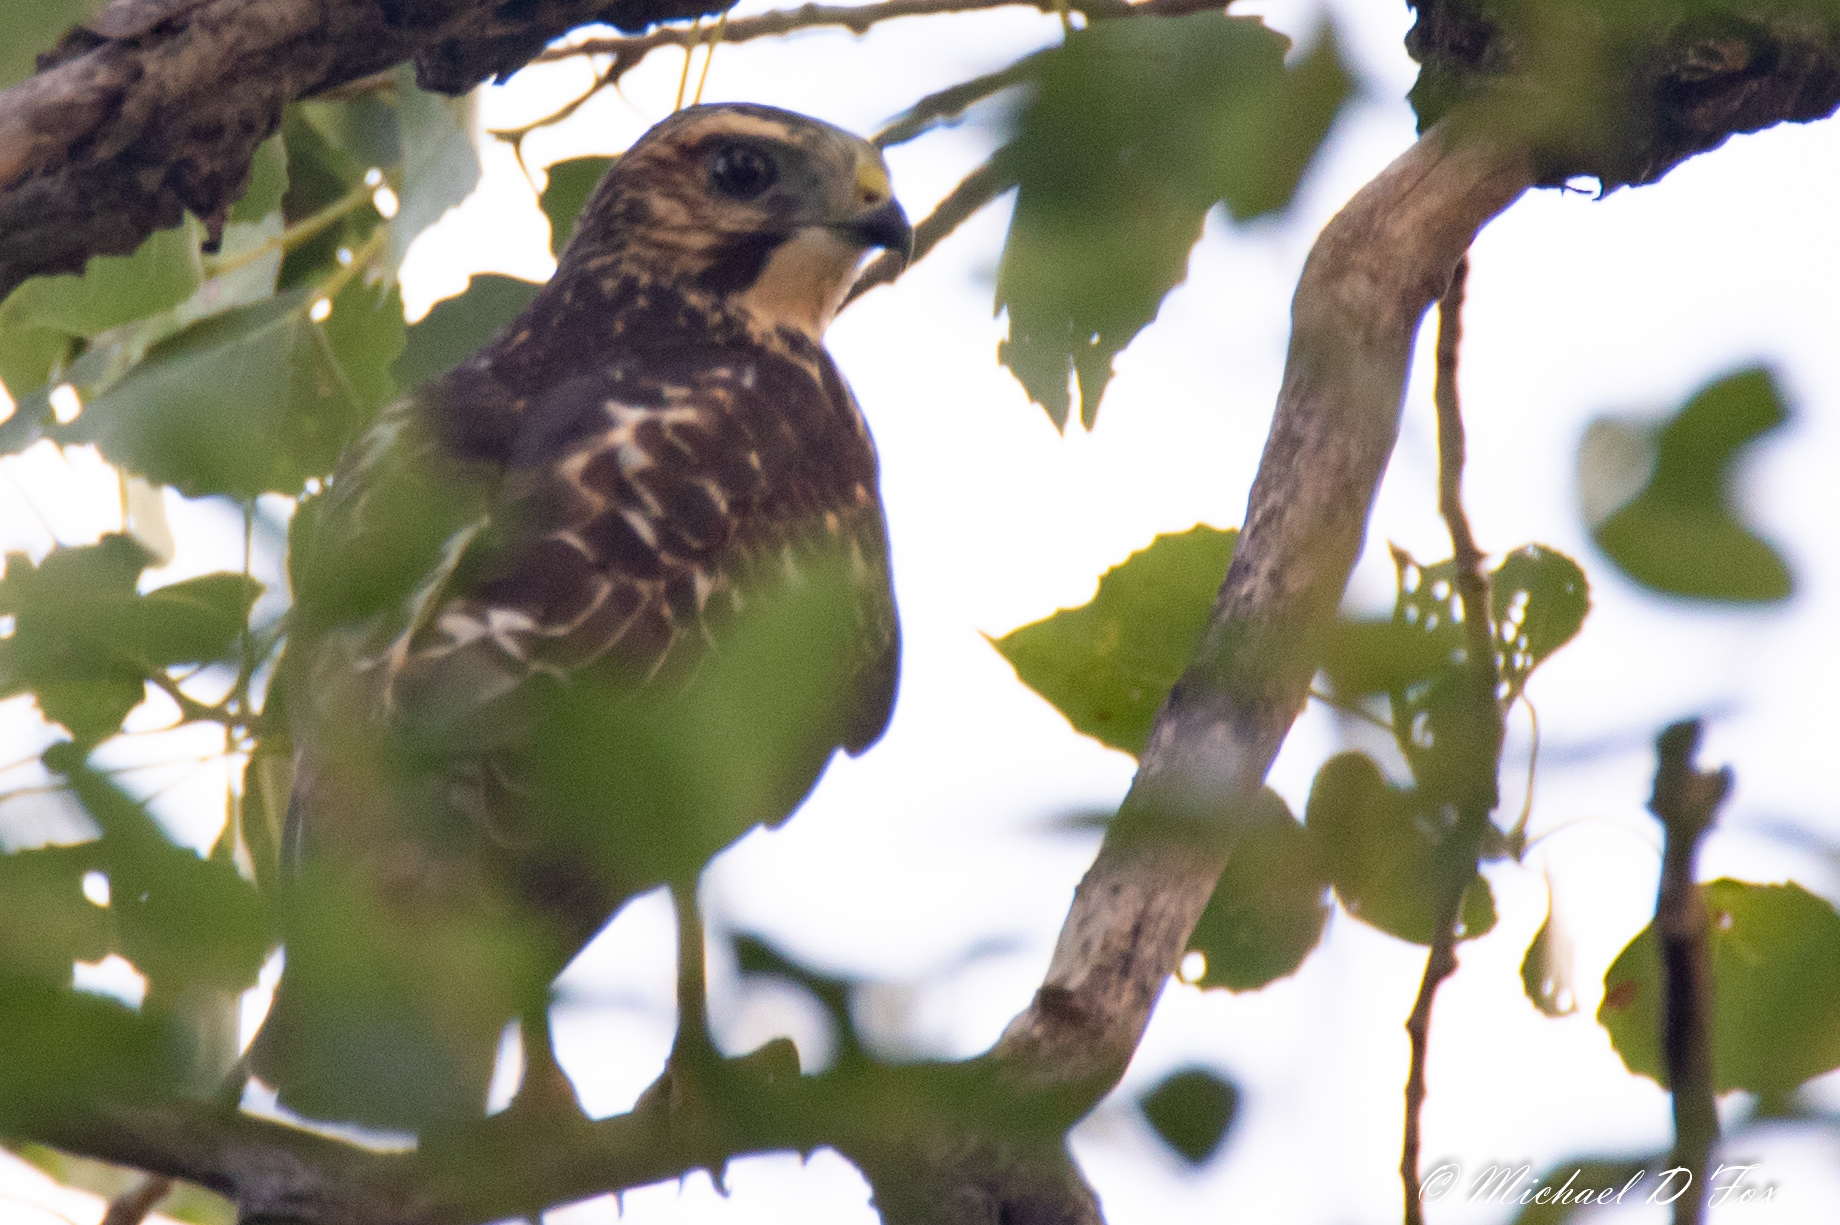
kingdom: Animalia
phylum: Chordata
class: Aves
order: Accipitriformes
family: Accipitridae
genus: Accipiter
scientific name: Accipiter cooperii
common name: Cooper's hawk
